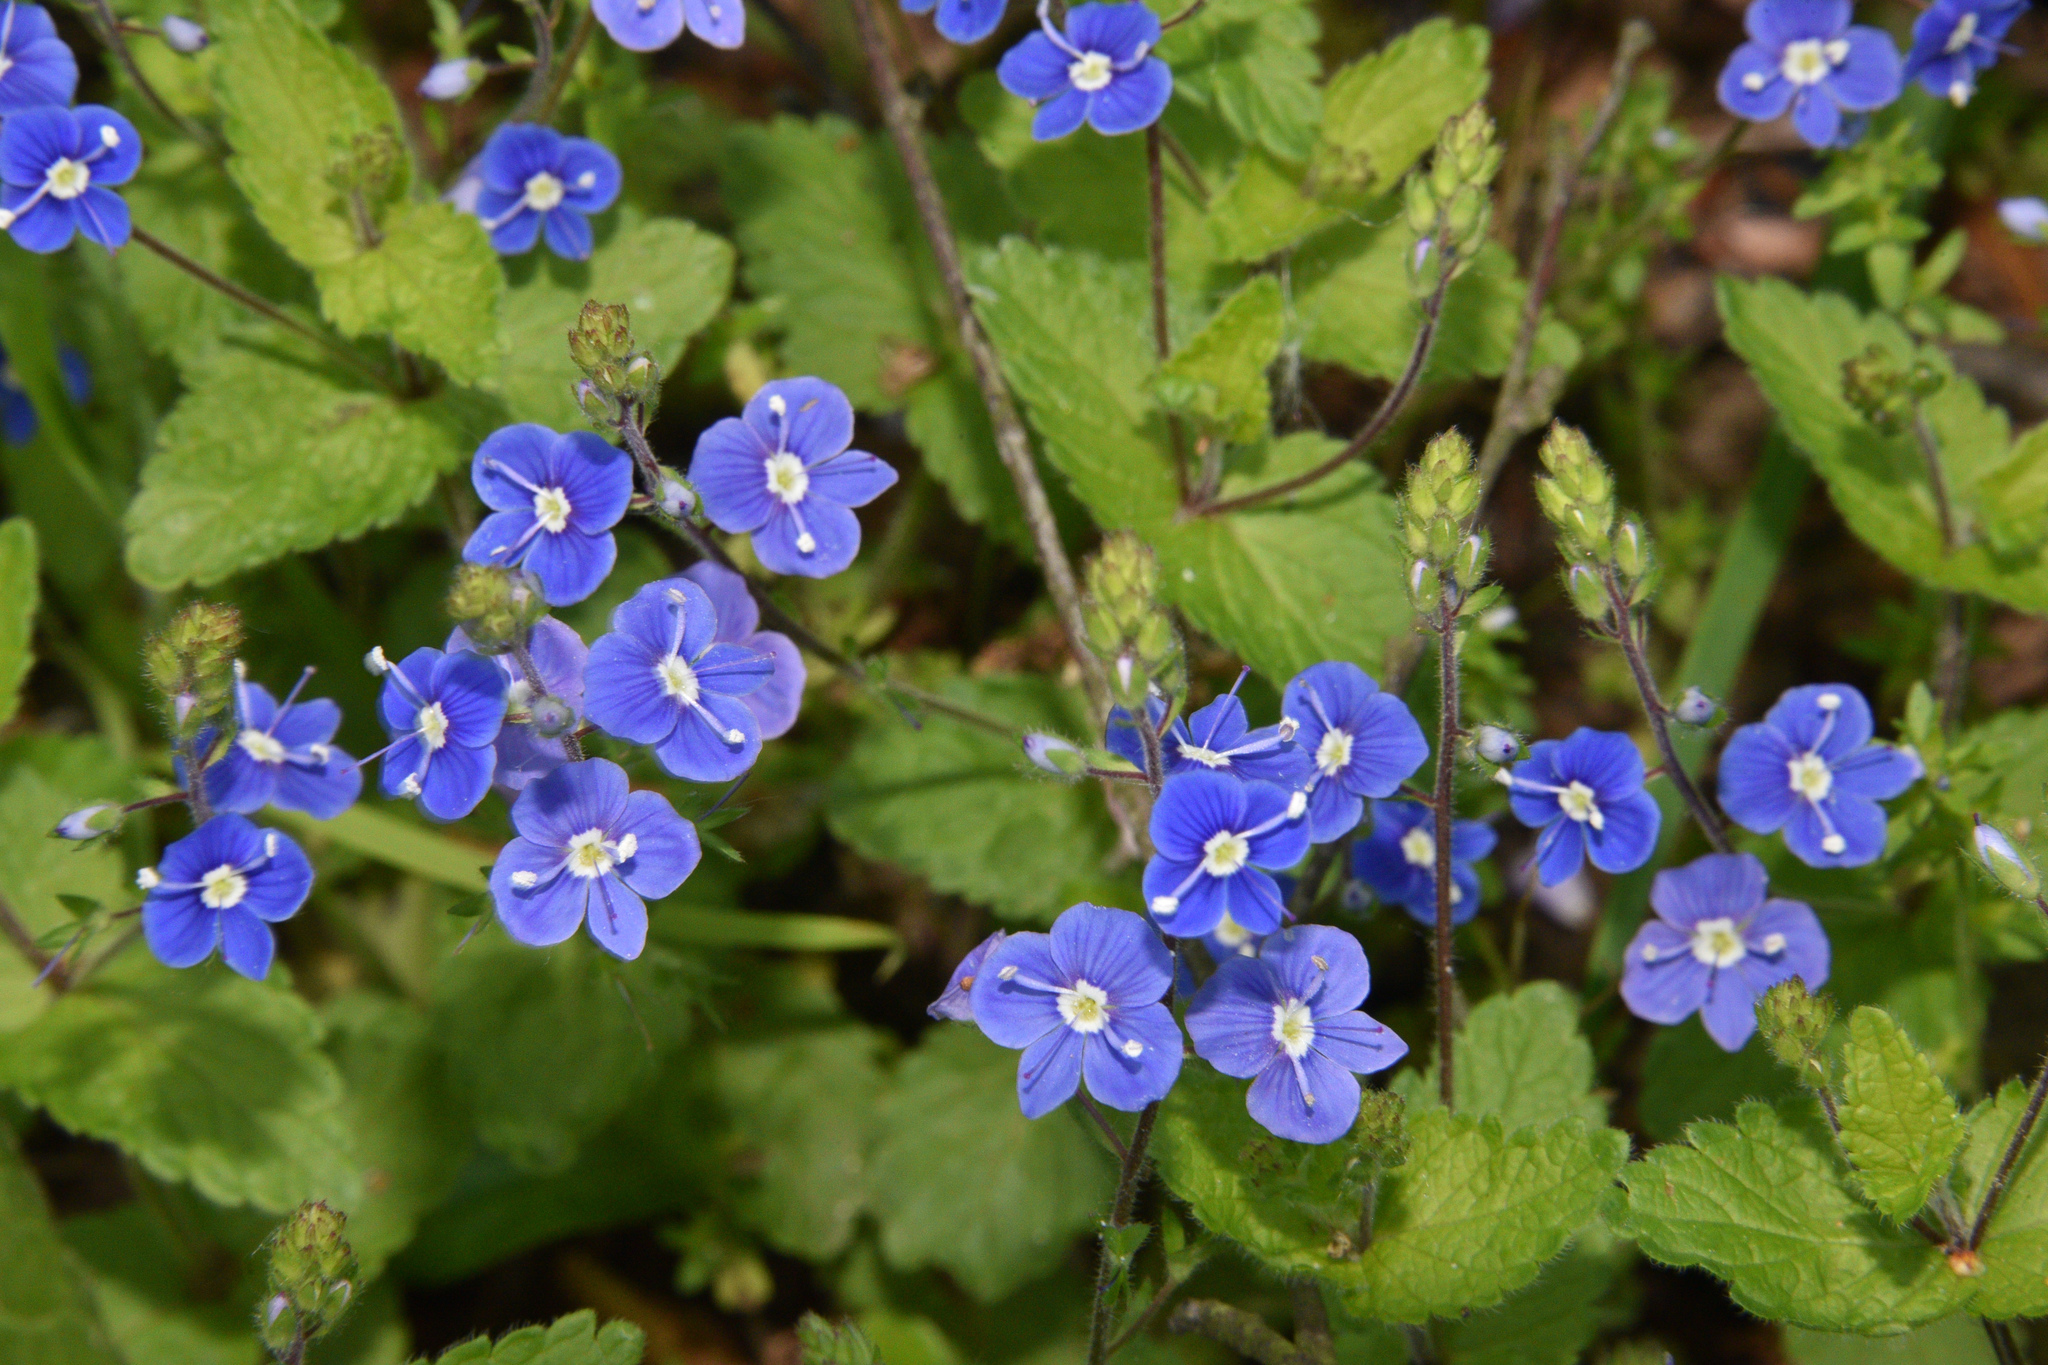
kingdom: Plantae
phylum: Tracheophyta
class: Magnoliopsida
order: Lamiales
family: Plantaginaceae
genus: Veronica
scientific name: Veronica chamaedrys
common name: Germander speedwell
